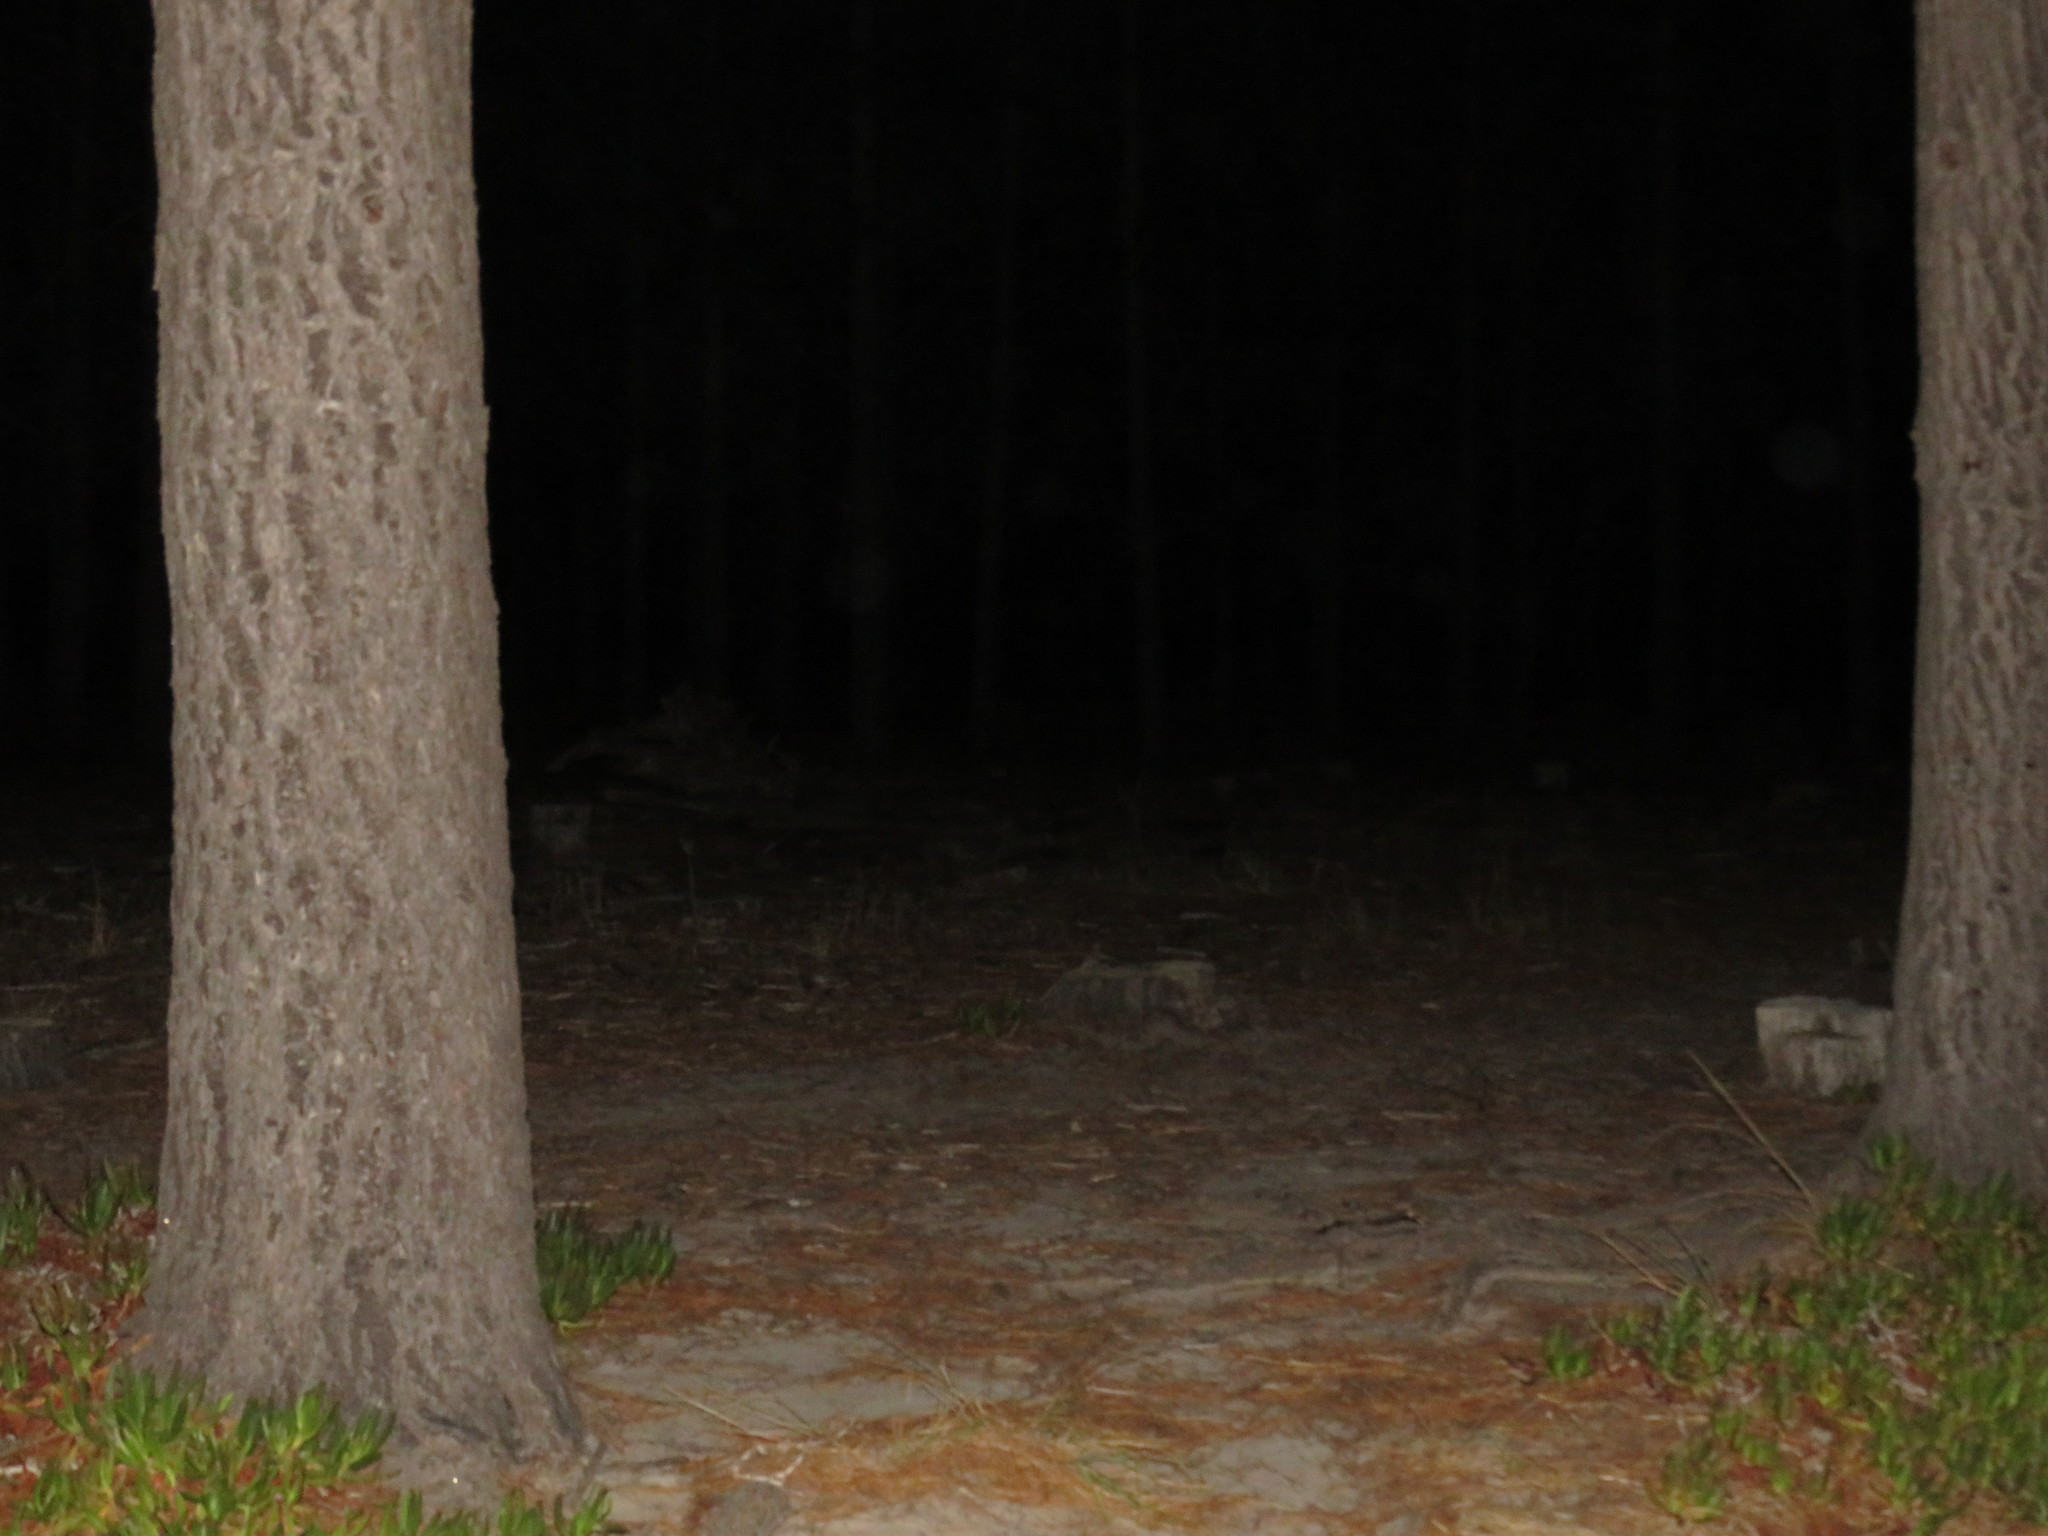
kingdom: Plantae
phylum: Tracheophyta
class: Magnoliopsida
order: Caryophyllales
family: Aizoaceae
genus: Carpobrotus
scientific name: Carpobrotus edulis
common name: Hottentot-fig
